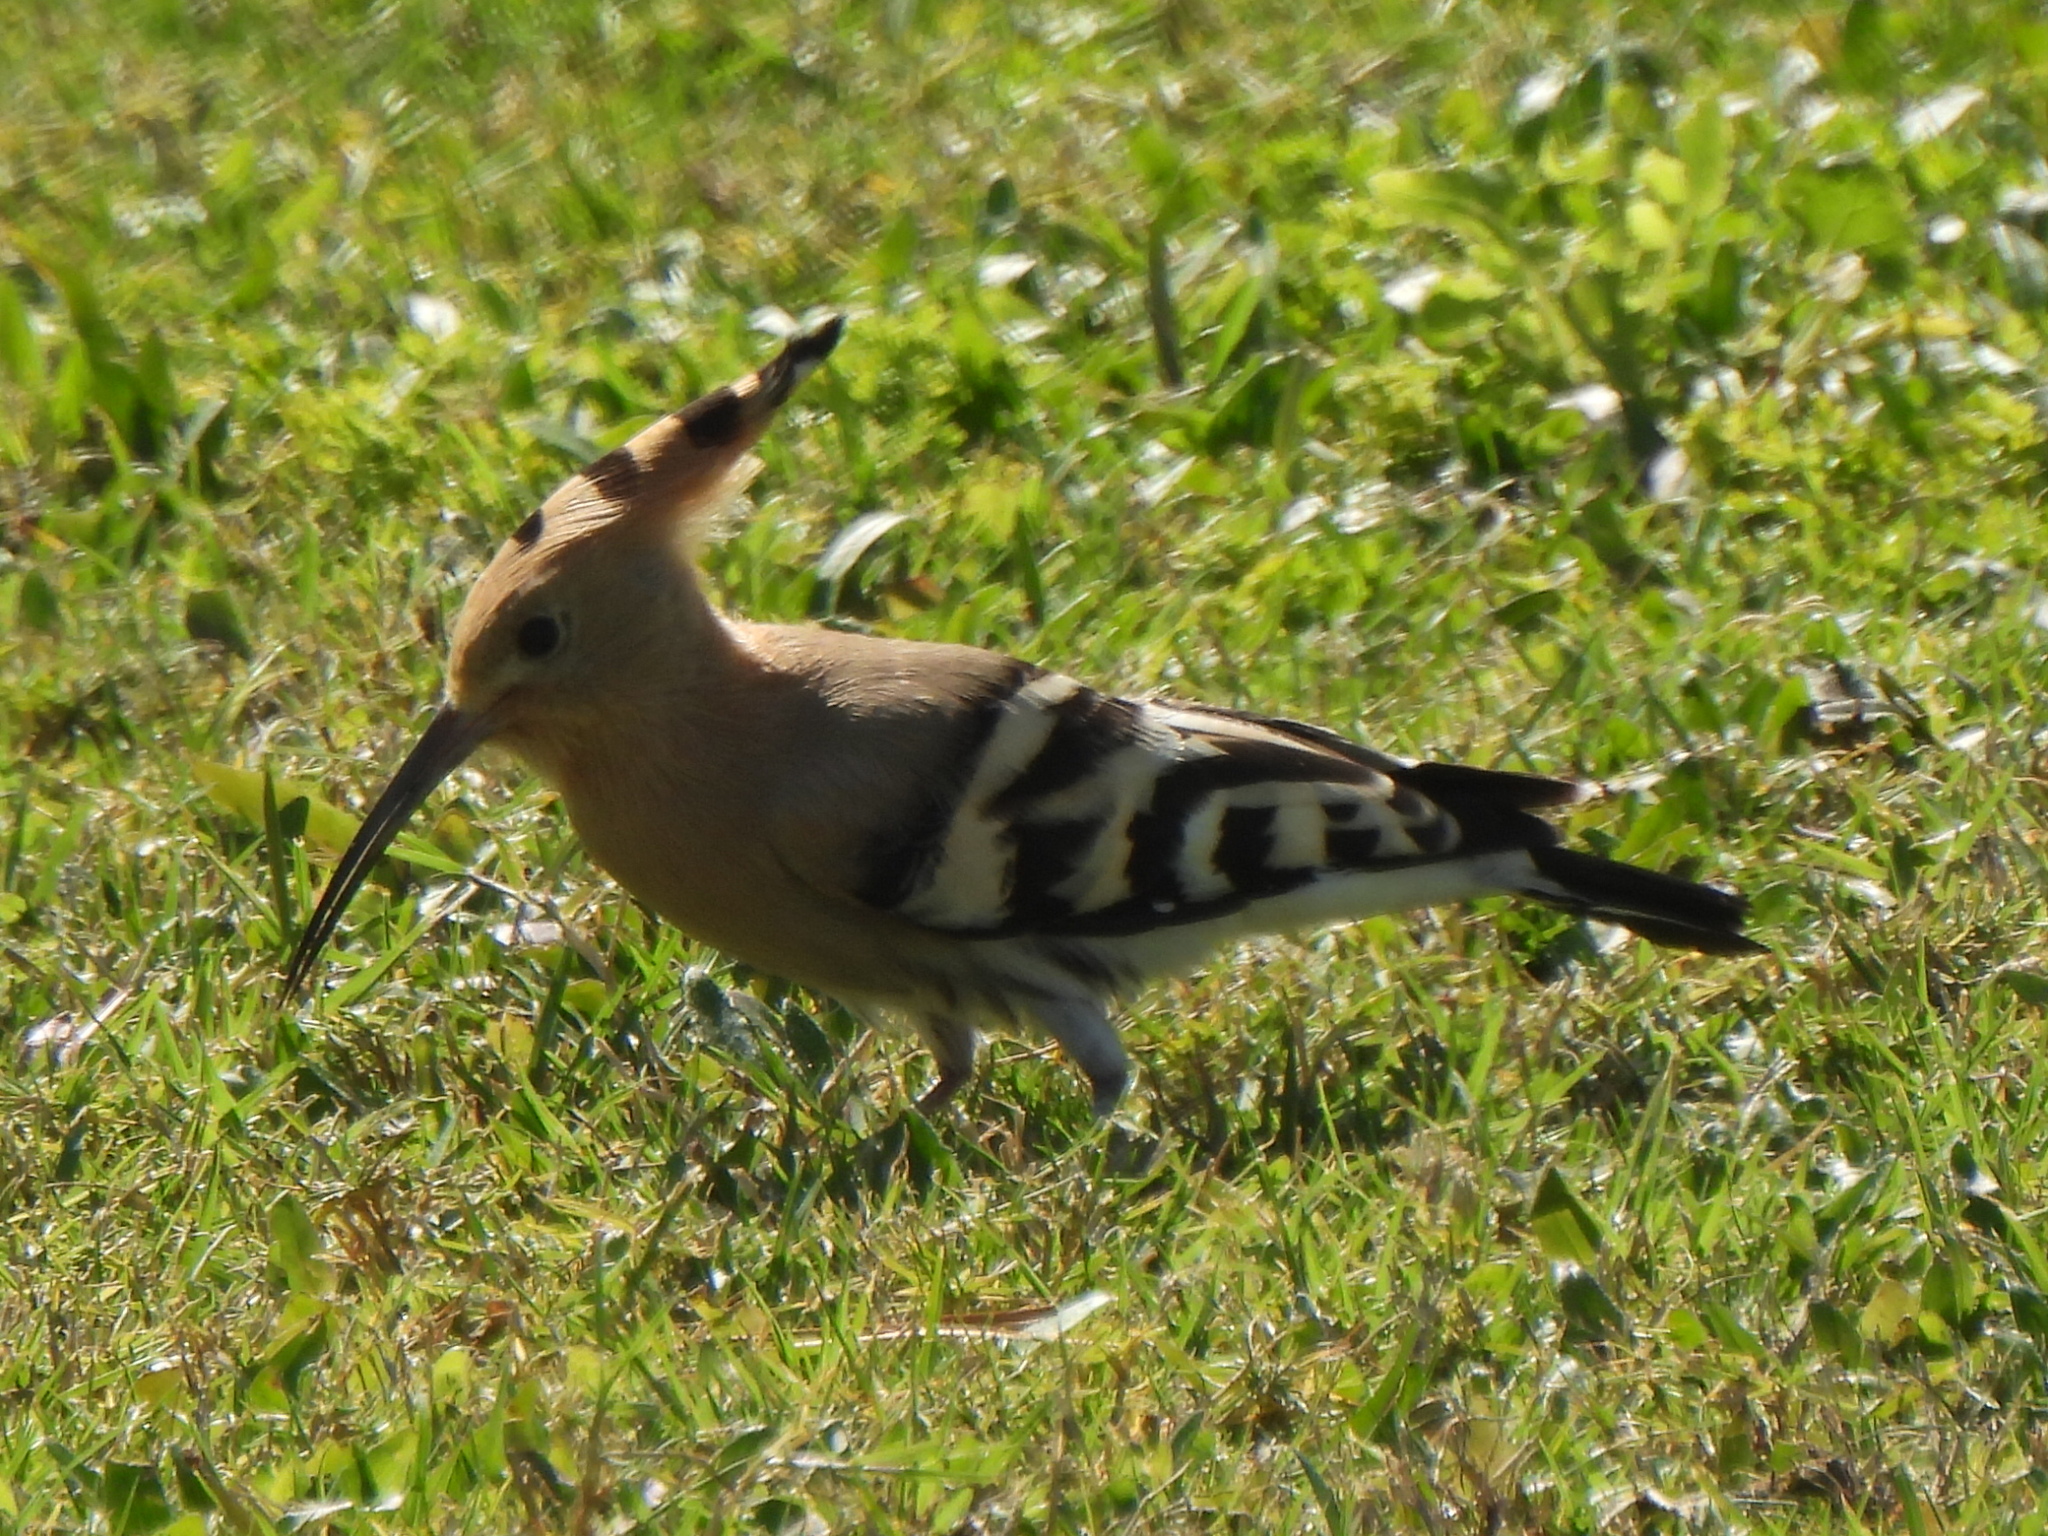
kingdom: Animalia
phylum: Chordata
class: Aves
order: Bucerotiformes
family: Upupidae
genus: Upupa
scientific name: Upupa epops
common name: Eurasian hoopoe
